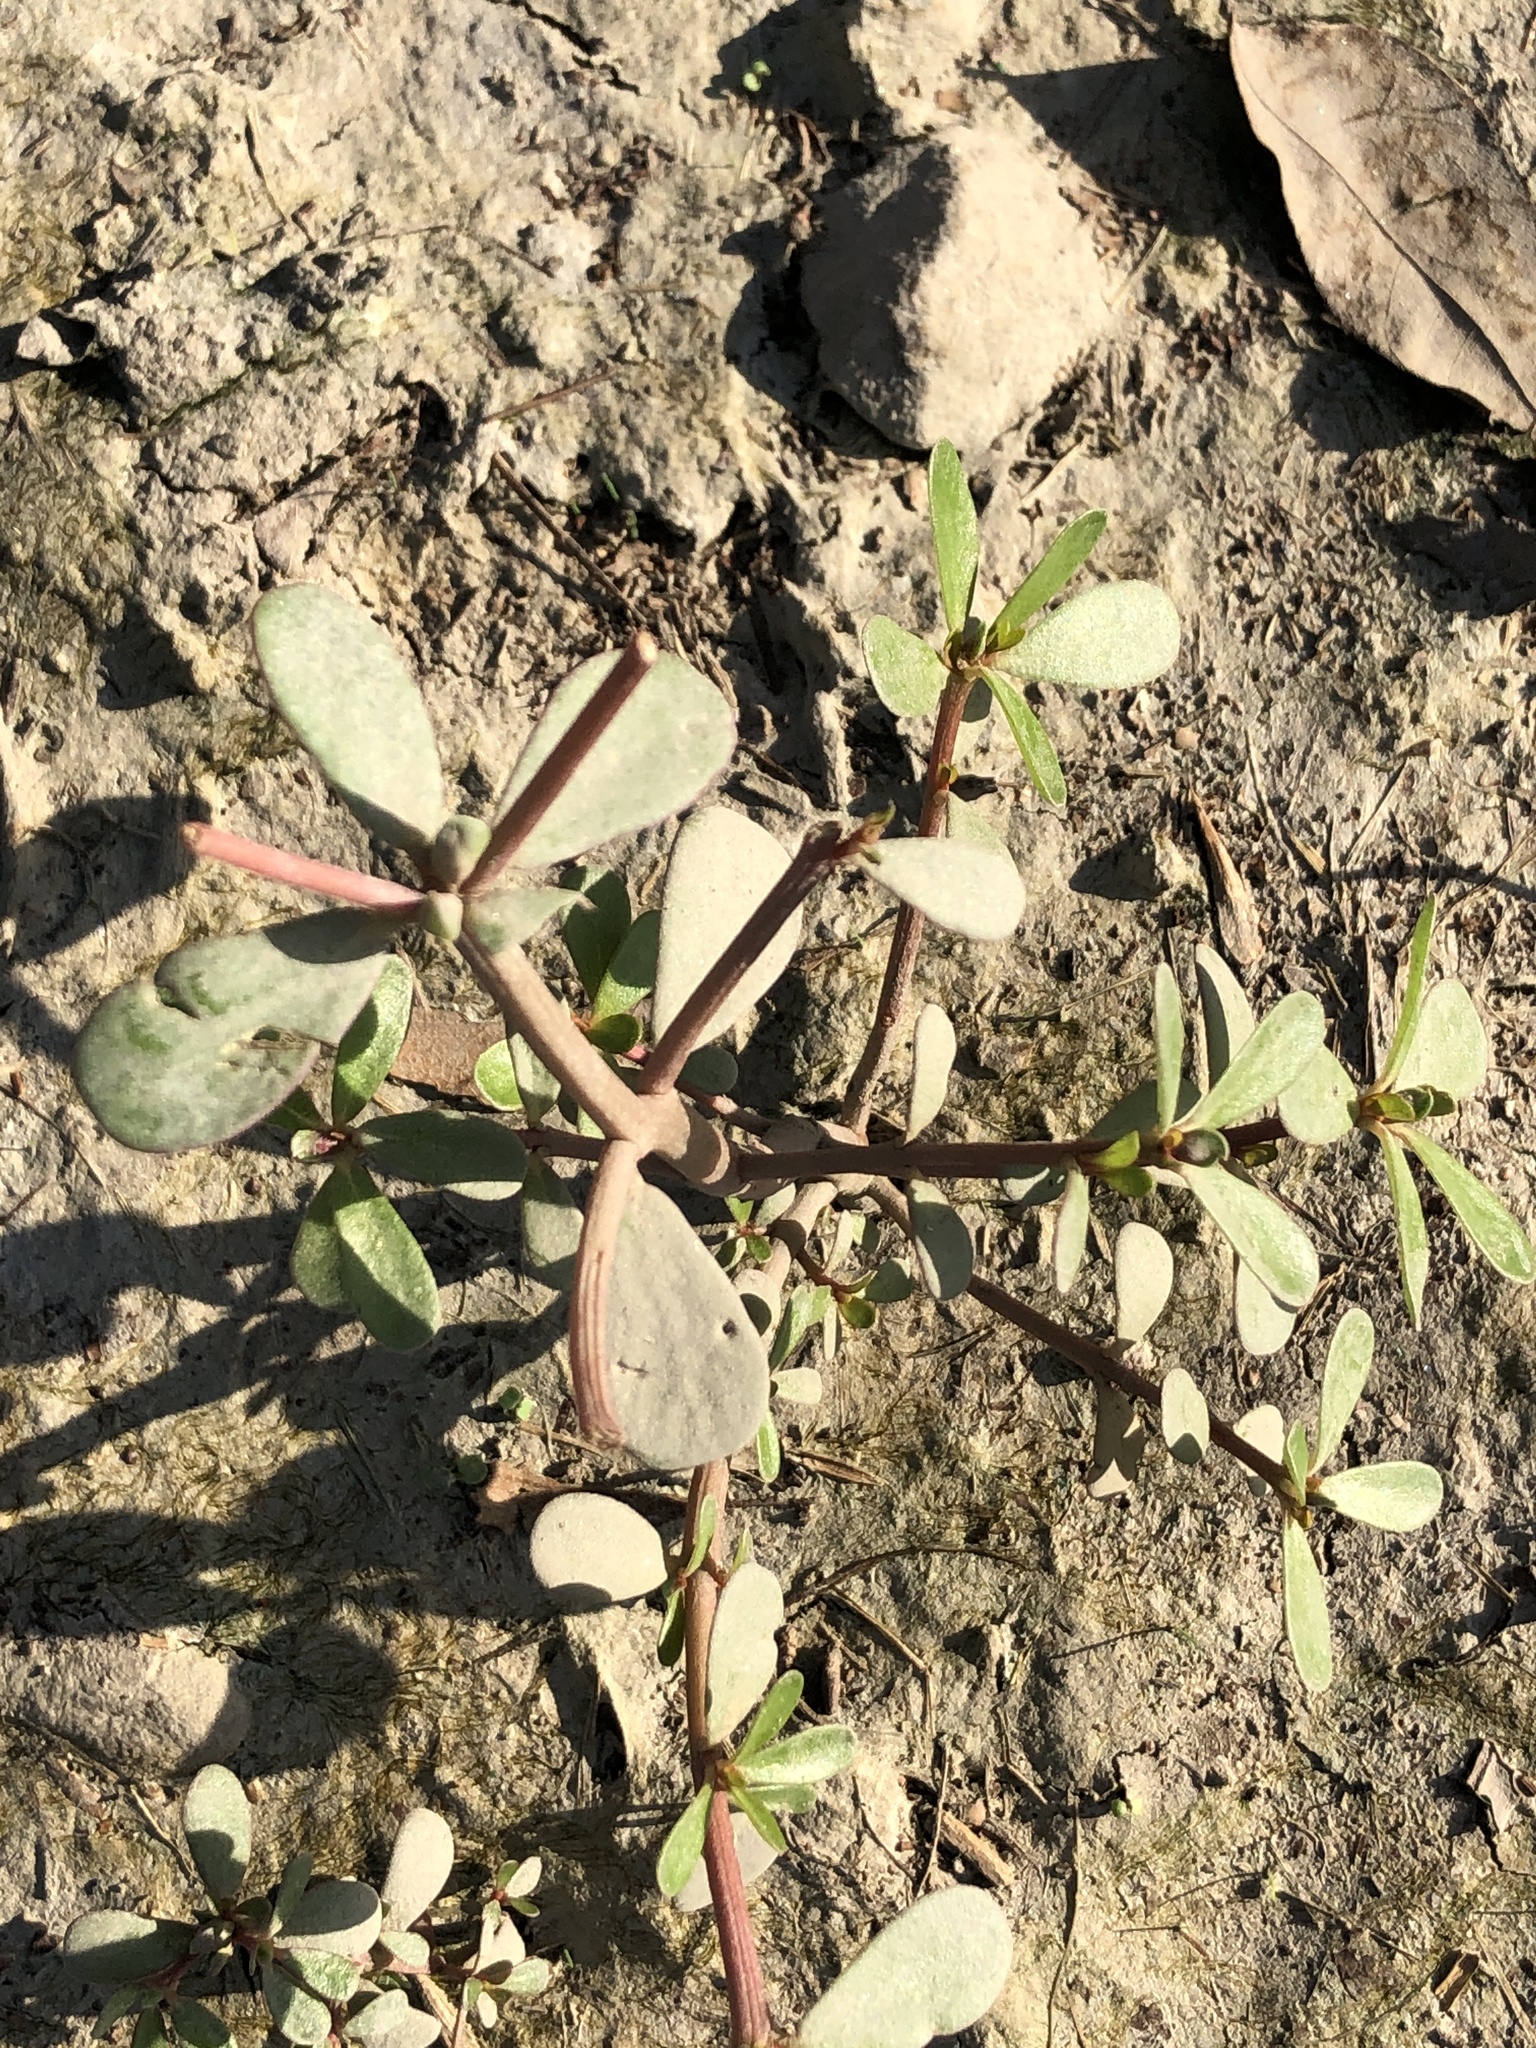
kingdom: Plantae
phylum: Tracheophyta
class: Magnoliopsida
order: Caryophyllales
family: Portulacaceae
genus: Portulaca
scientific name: Portulaca oleracea
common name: Common purslane
